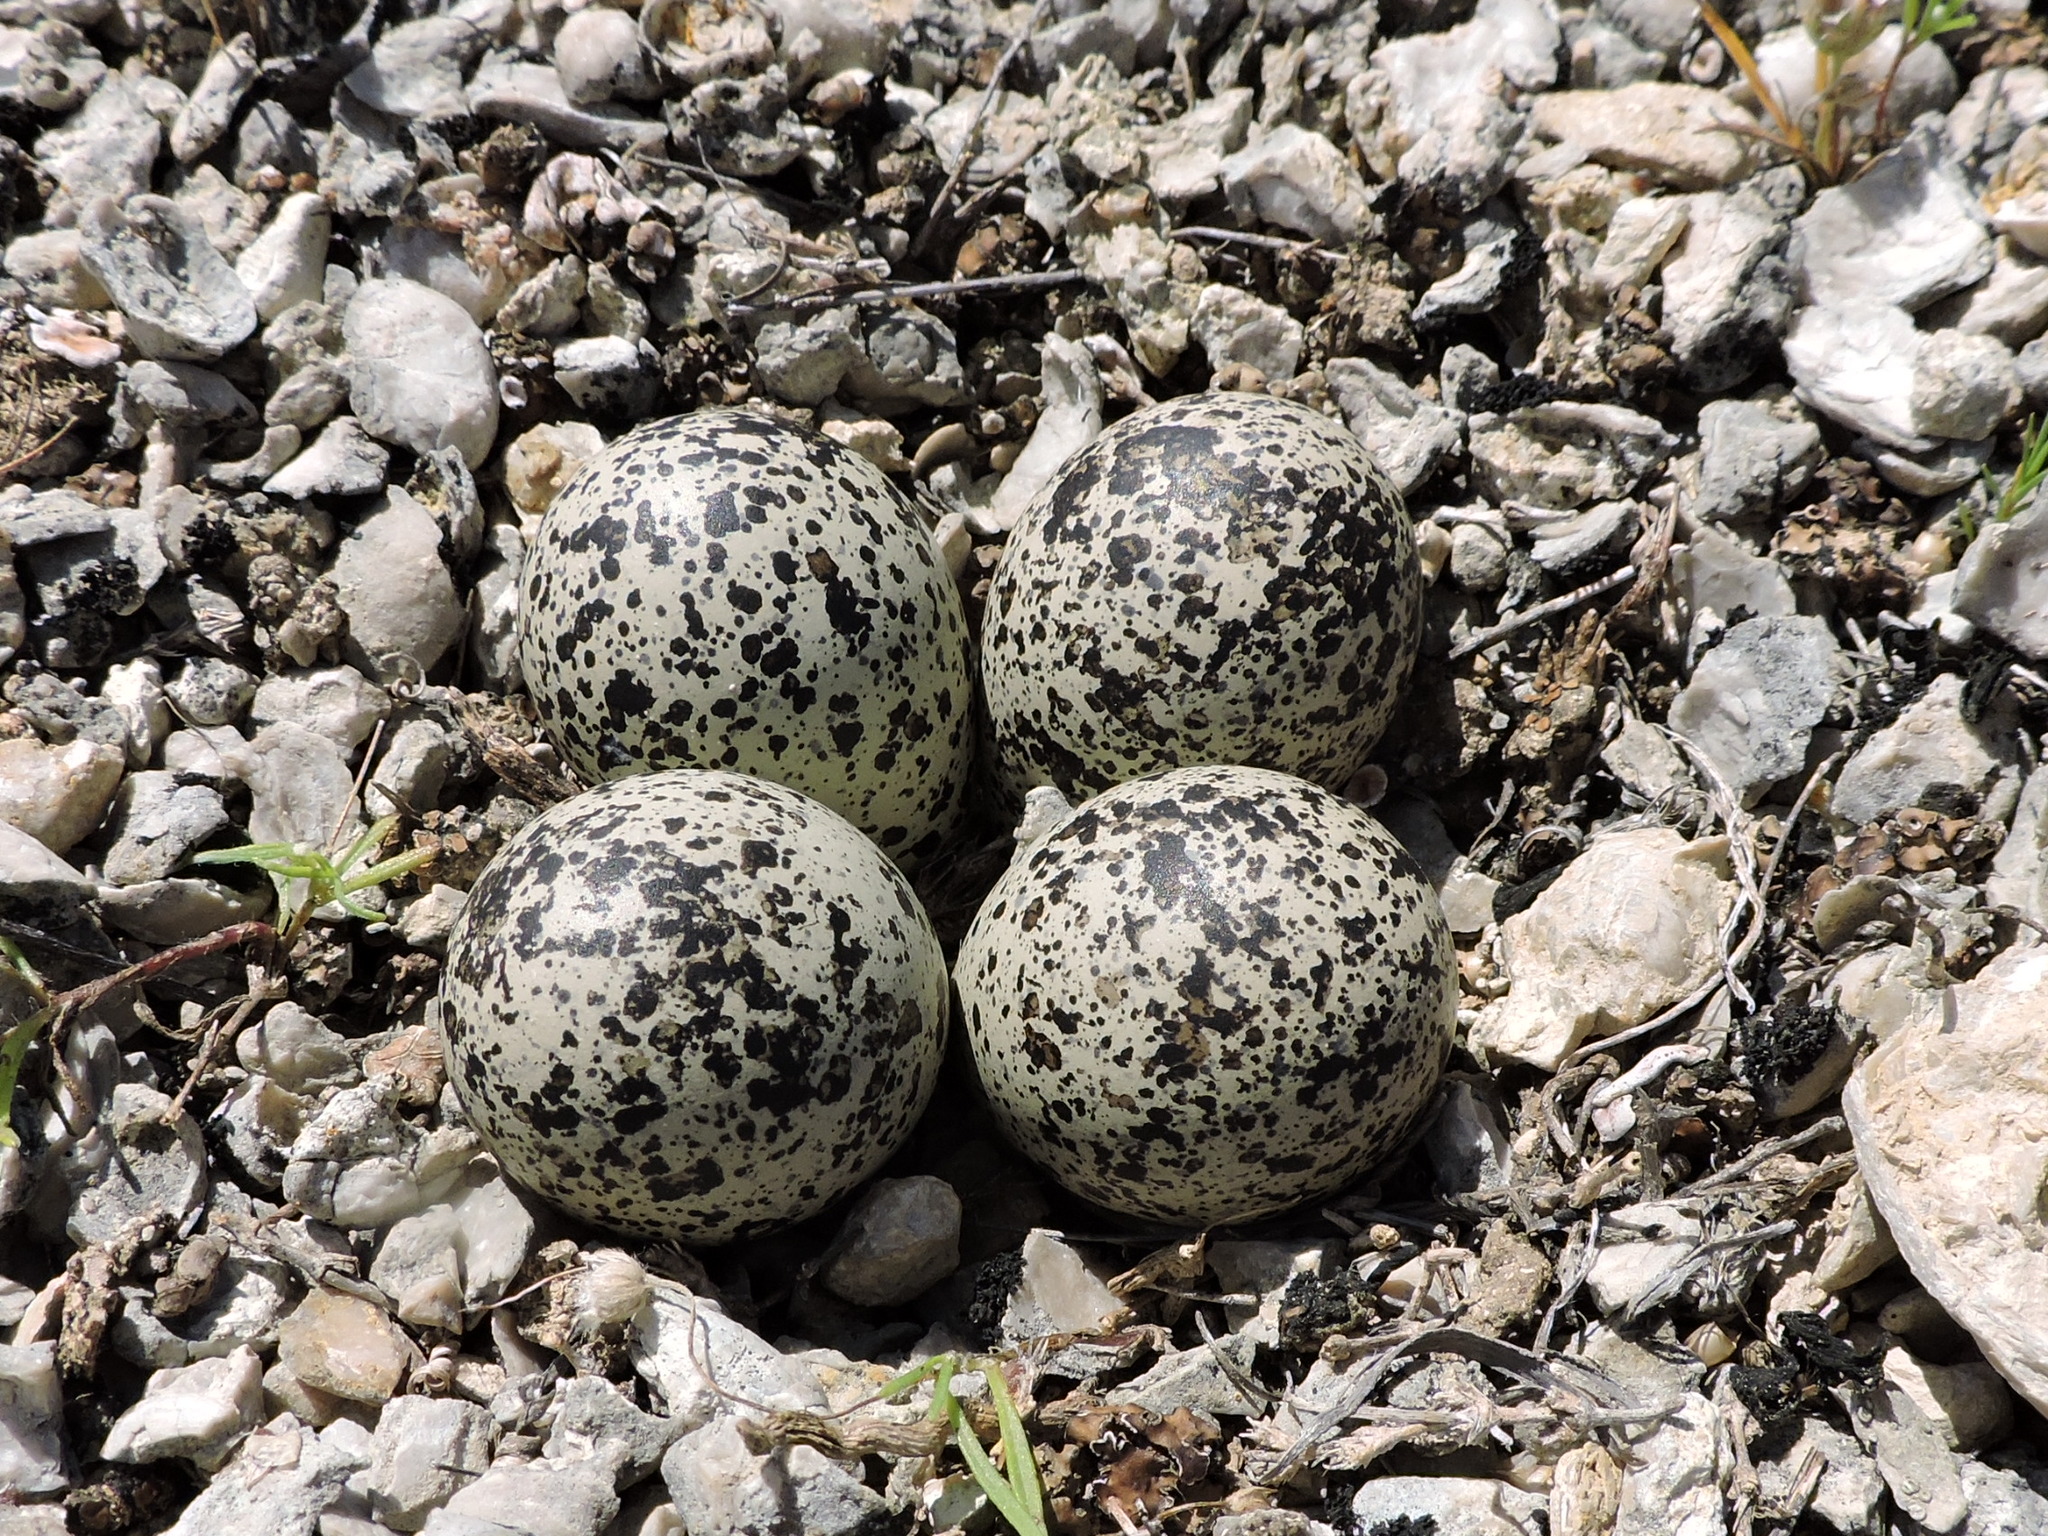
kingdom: Animalia
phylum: Chordata
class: Aves
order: Charadriiformes
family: Charadriidae
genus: Charadrius
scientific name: Charadrius vociferus
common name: Killdeer
